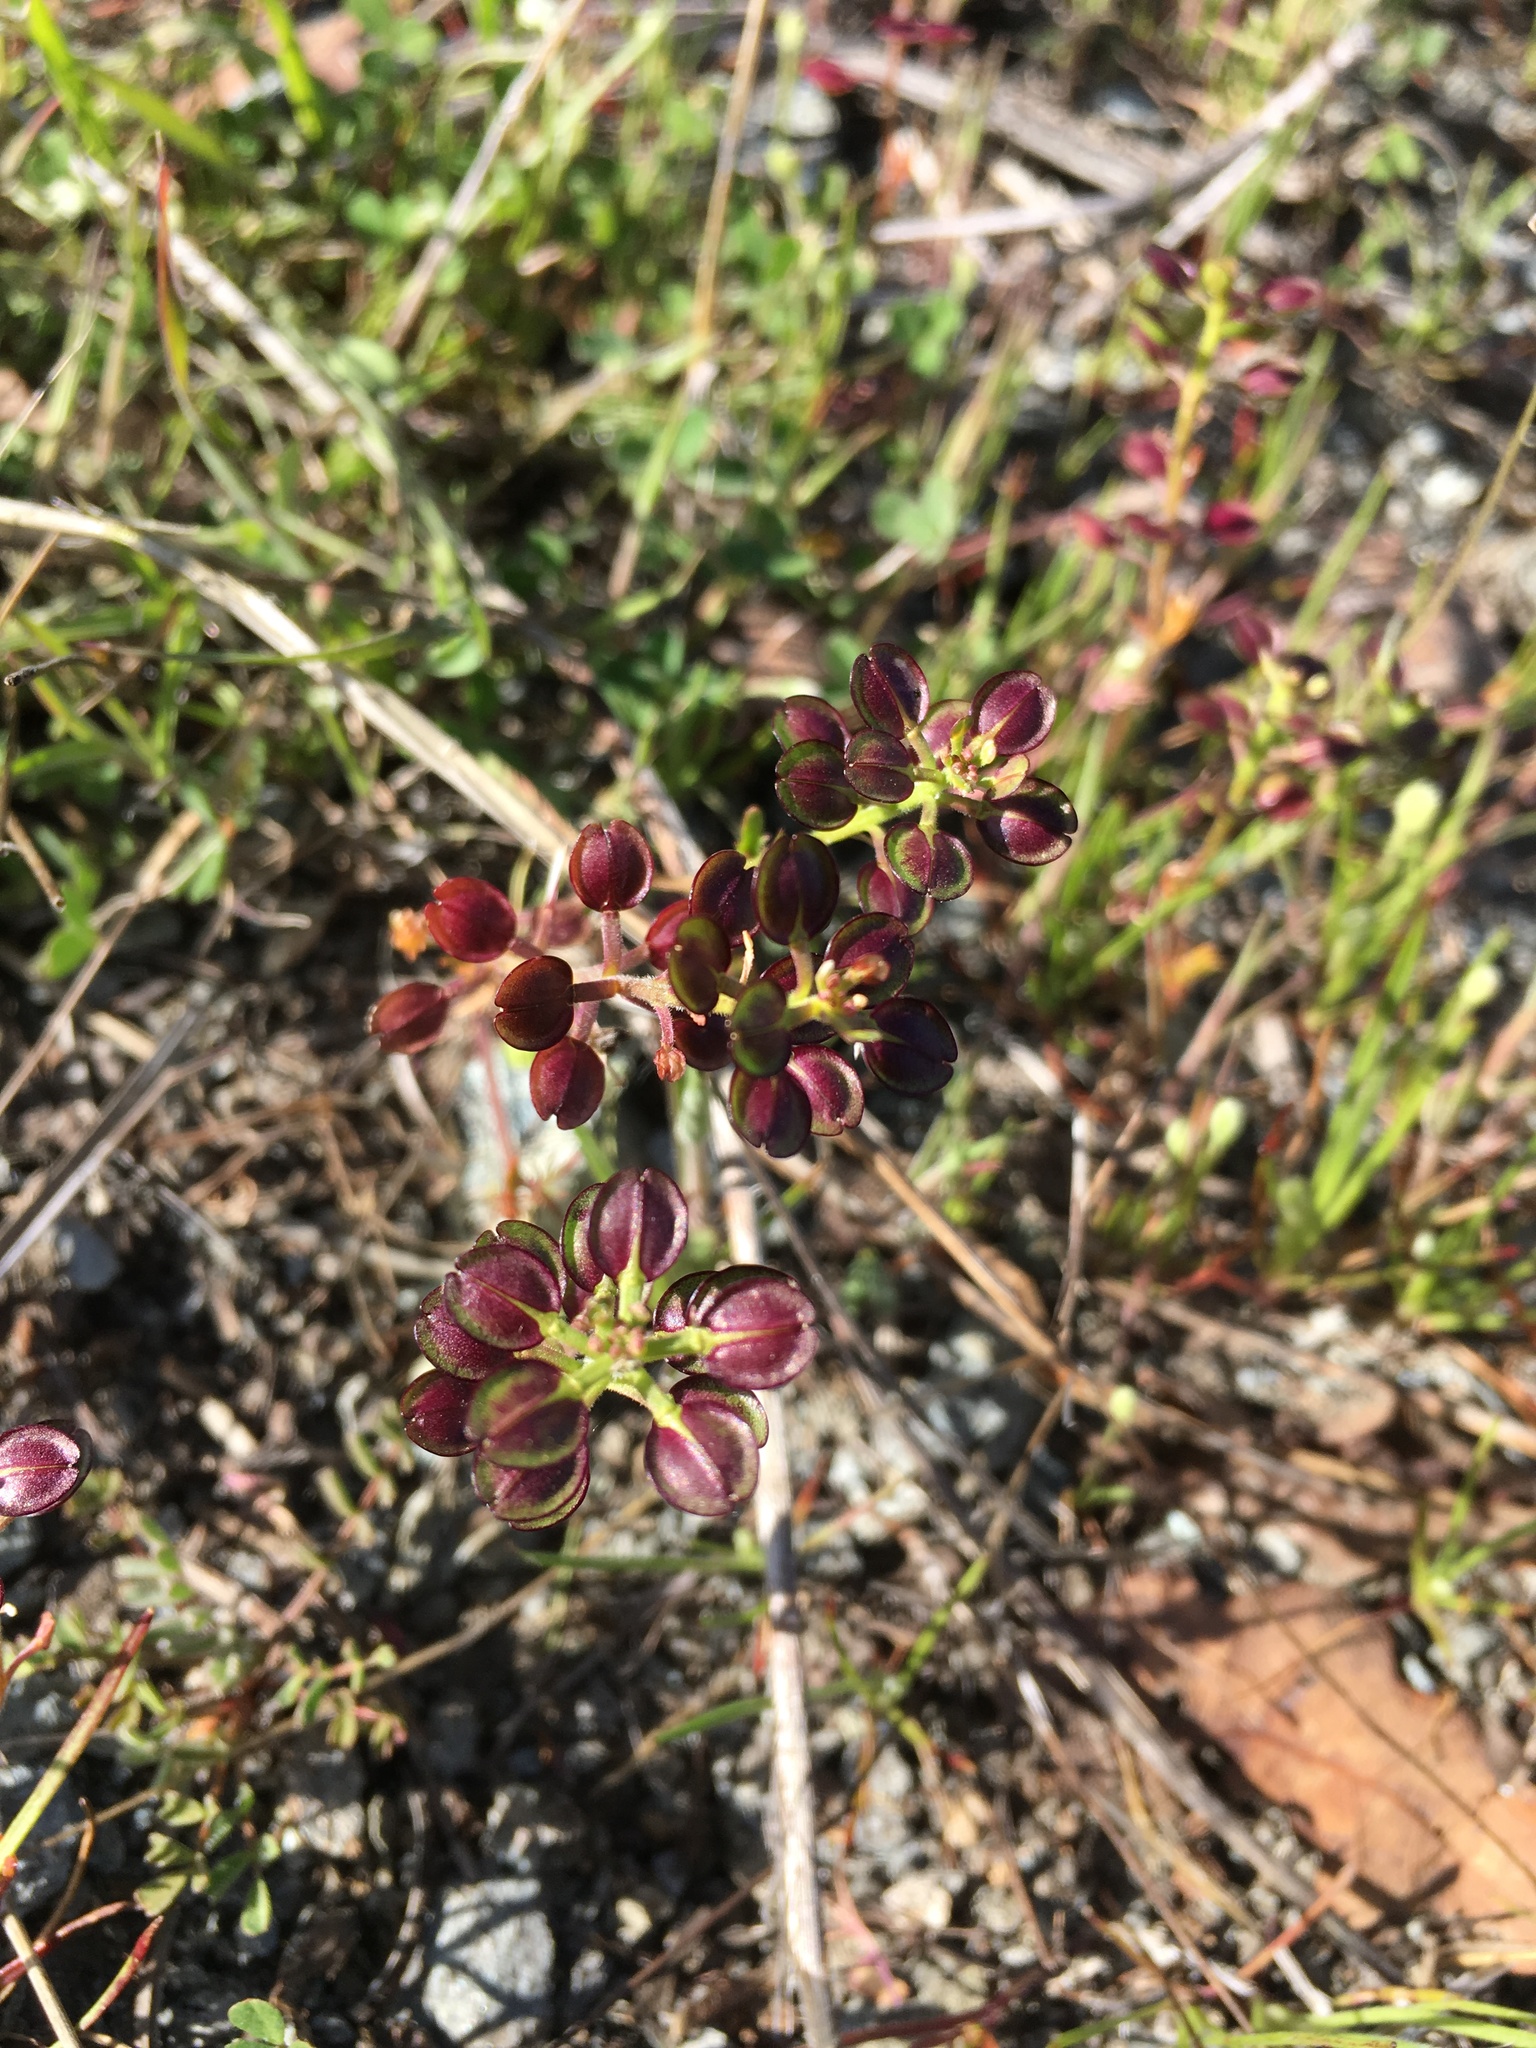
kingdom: Plantae
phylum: Tracheophyta
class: Magnoliopsida
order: Brassicales
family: Brassicaceae
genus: Lepidium
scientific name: Lepidium nitidum
